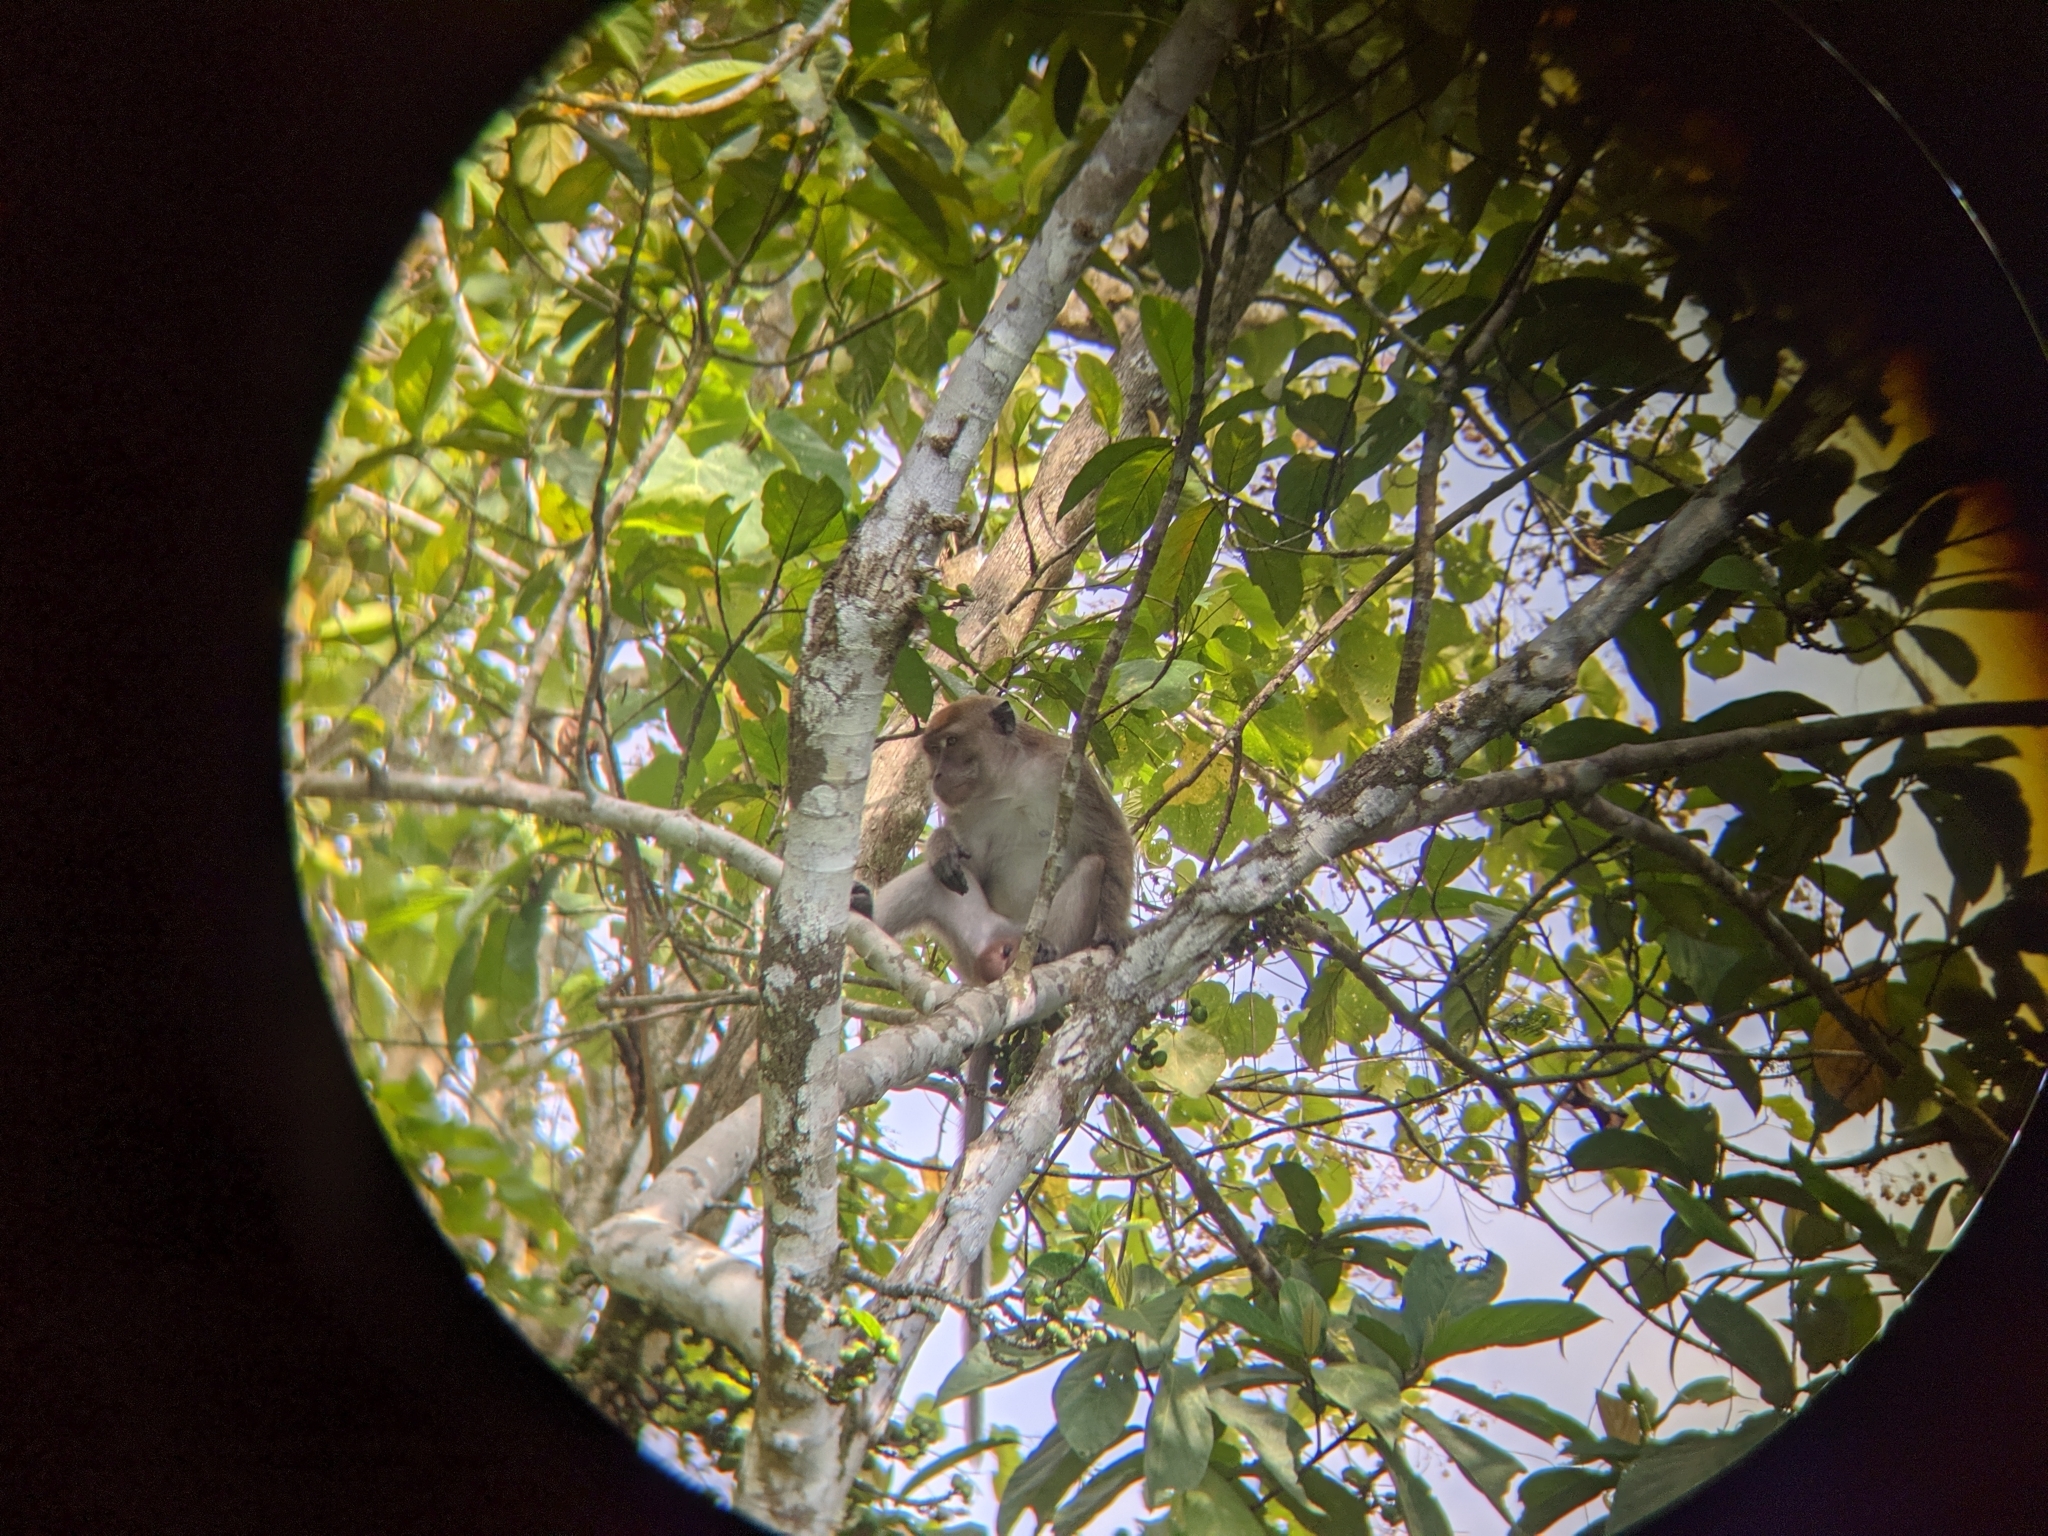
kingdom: Animalia
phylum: Chordata
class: Mammalia
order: Primates
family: Cercopithecidae
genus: Macaca
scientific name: Macaca fascicularis
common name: Crab-eating macaque
